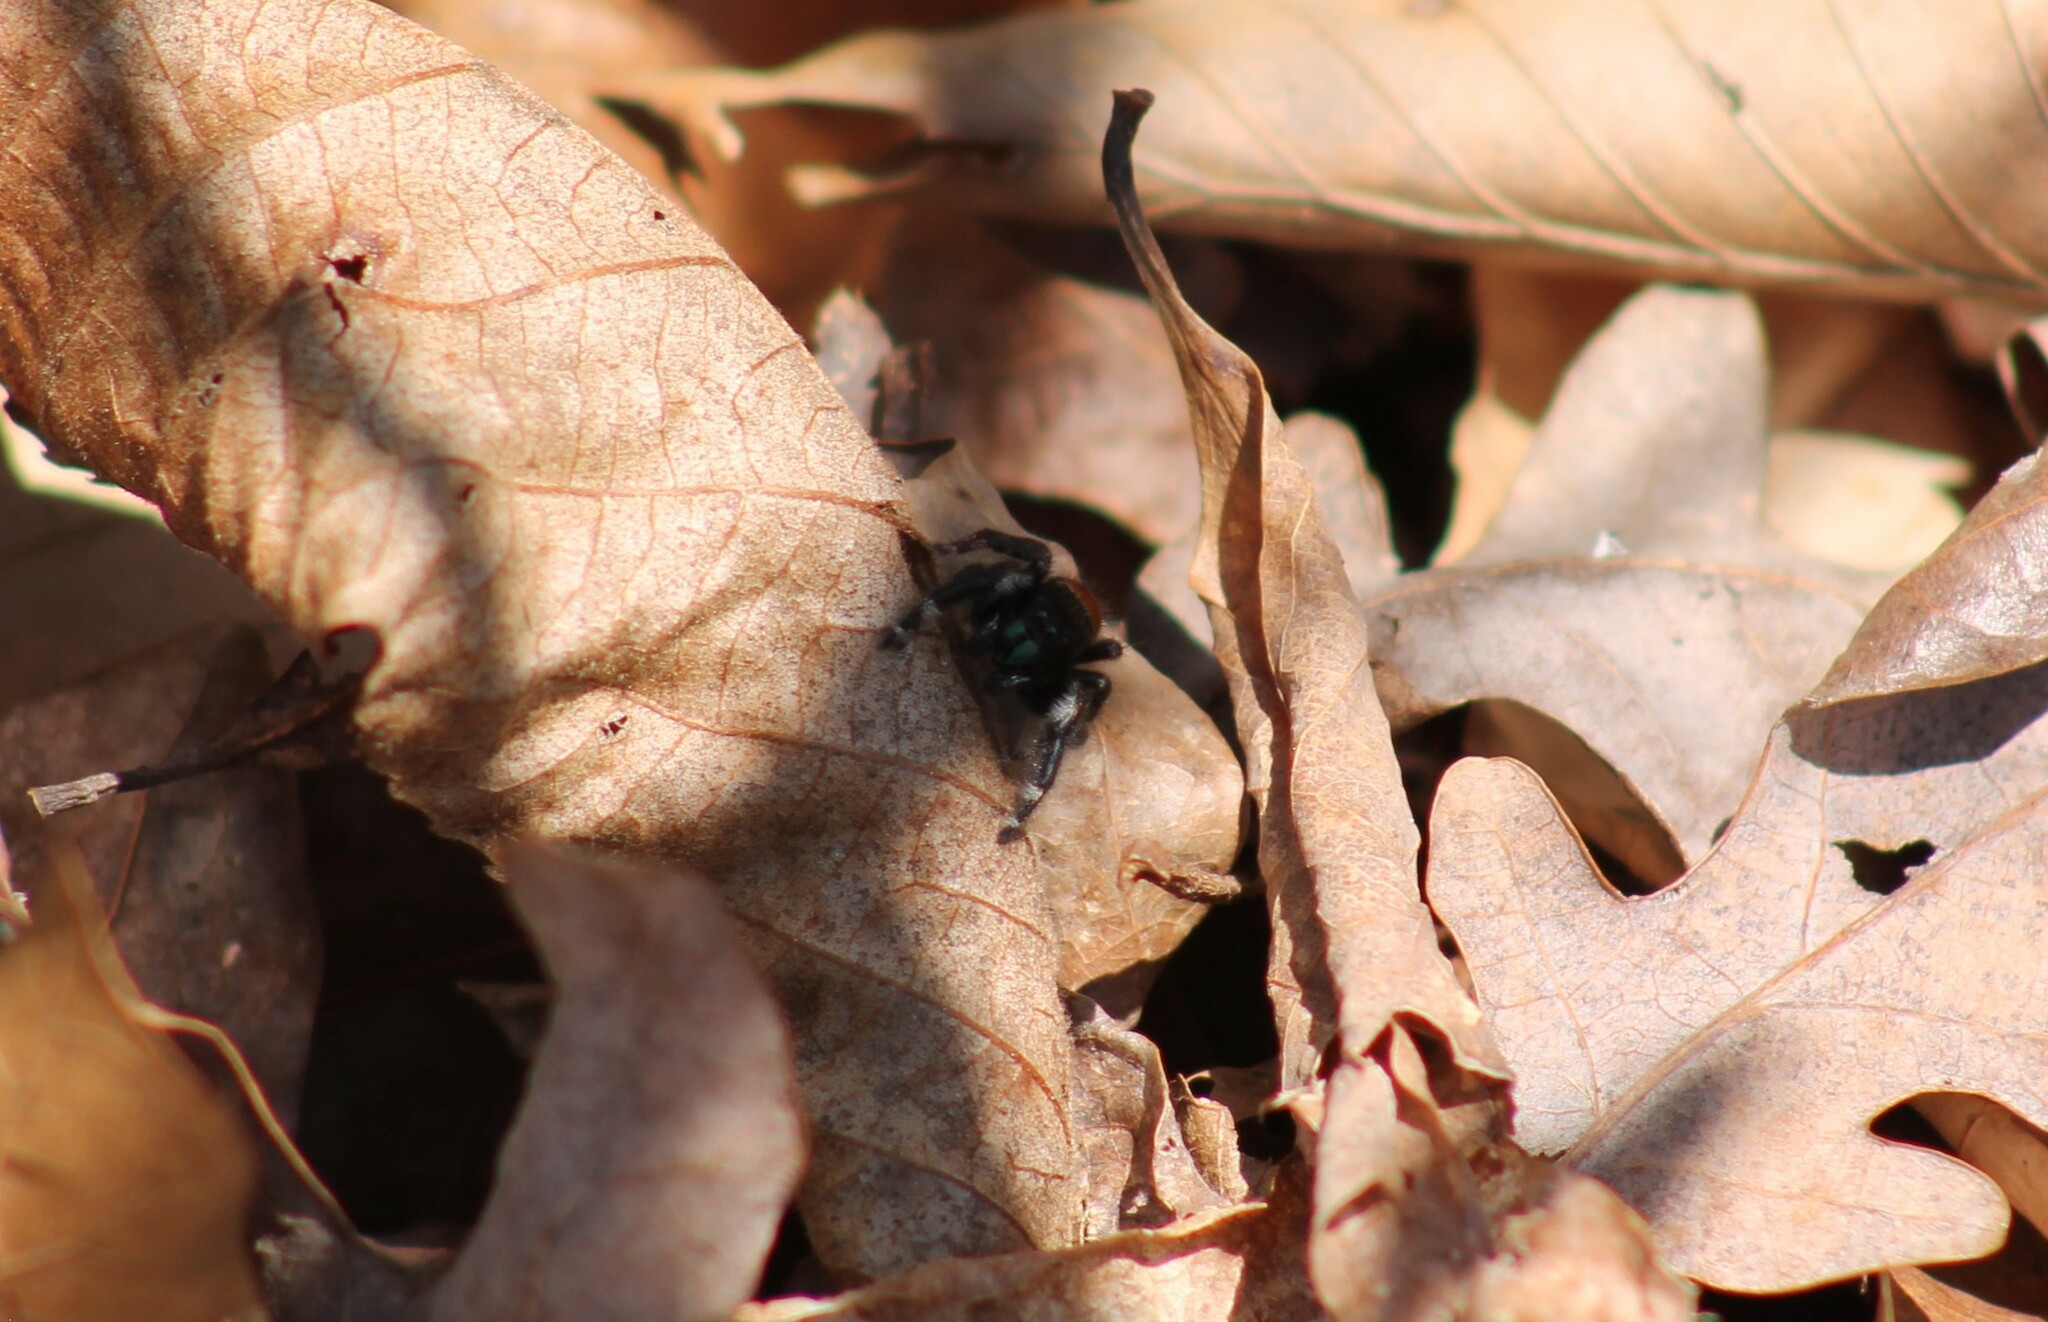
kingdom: Animalia
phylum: Arthropoda
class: Arachnida
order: Araneae
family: Salticidae
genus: Phidippus
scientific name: Phidippus princeps
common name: Grayish jumping spider
